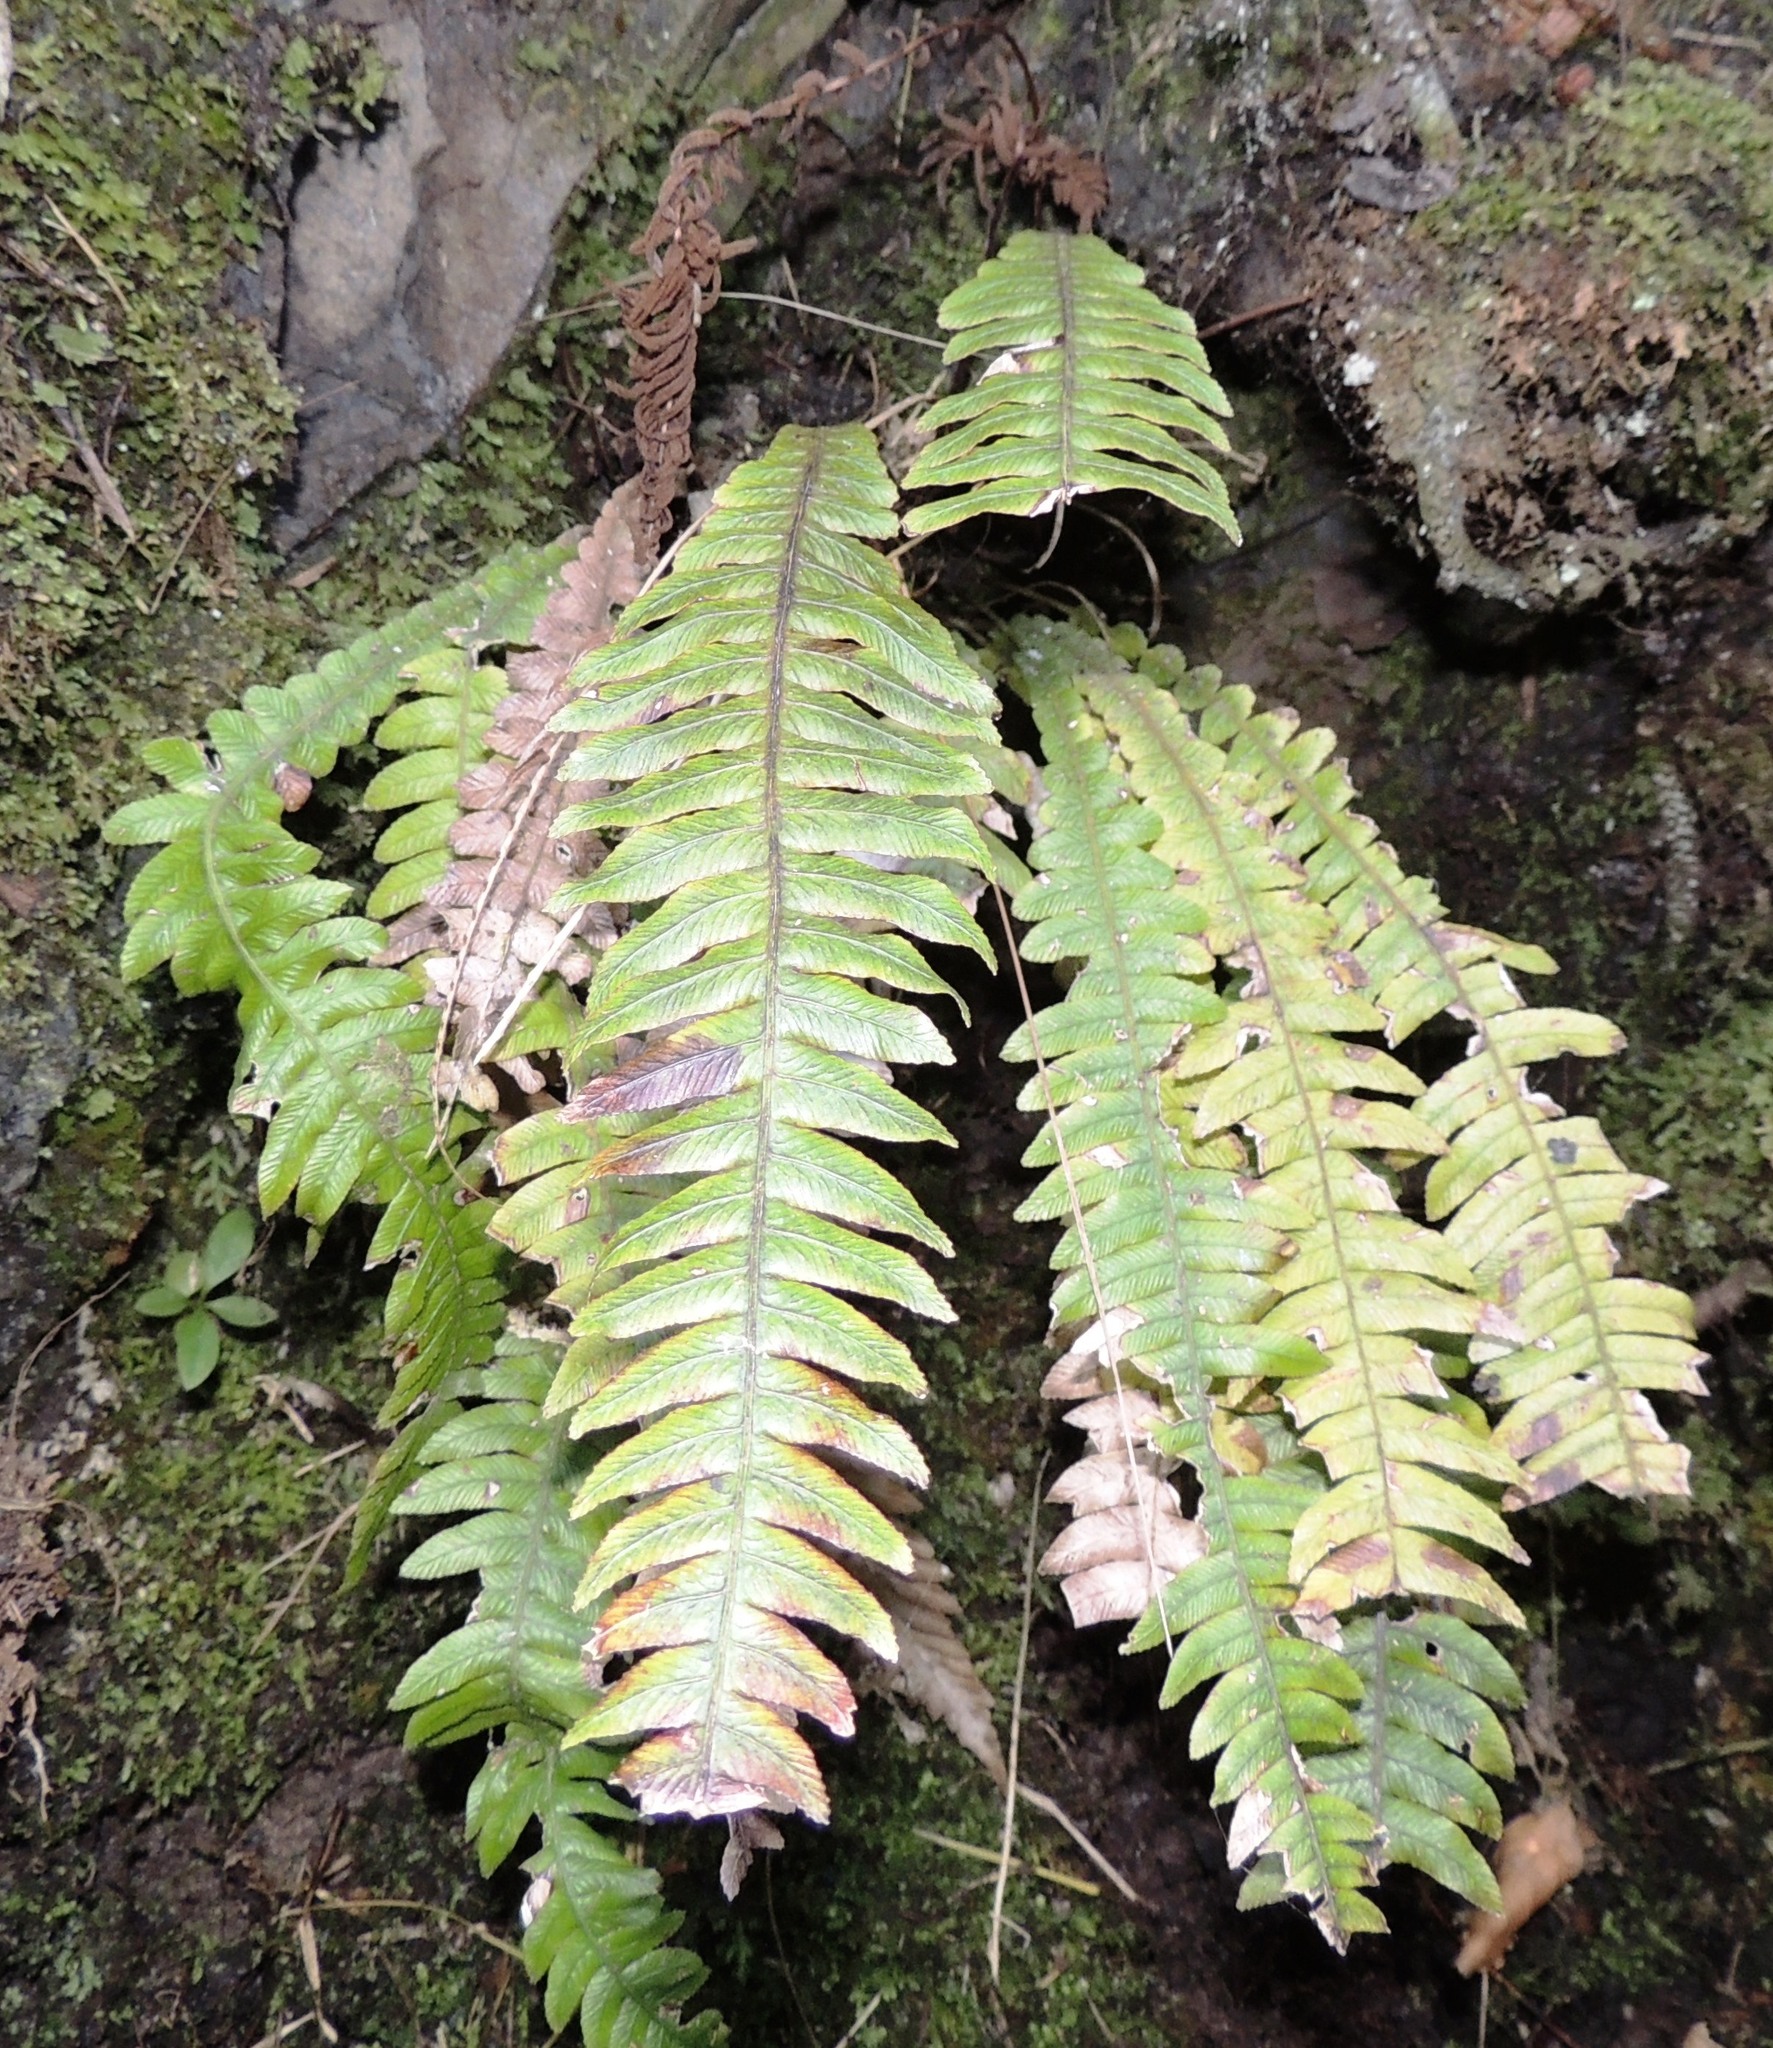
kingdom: Plantae
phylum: Tracheophyta
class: Polypodiopsida
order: Polypodiales
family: Blechnaceae
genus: Austroblechnum
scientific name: Austroblechnum lanceolatum
